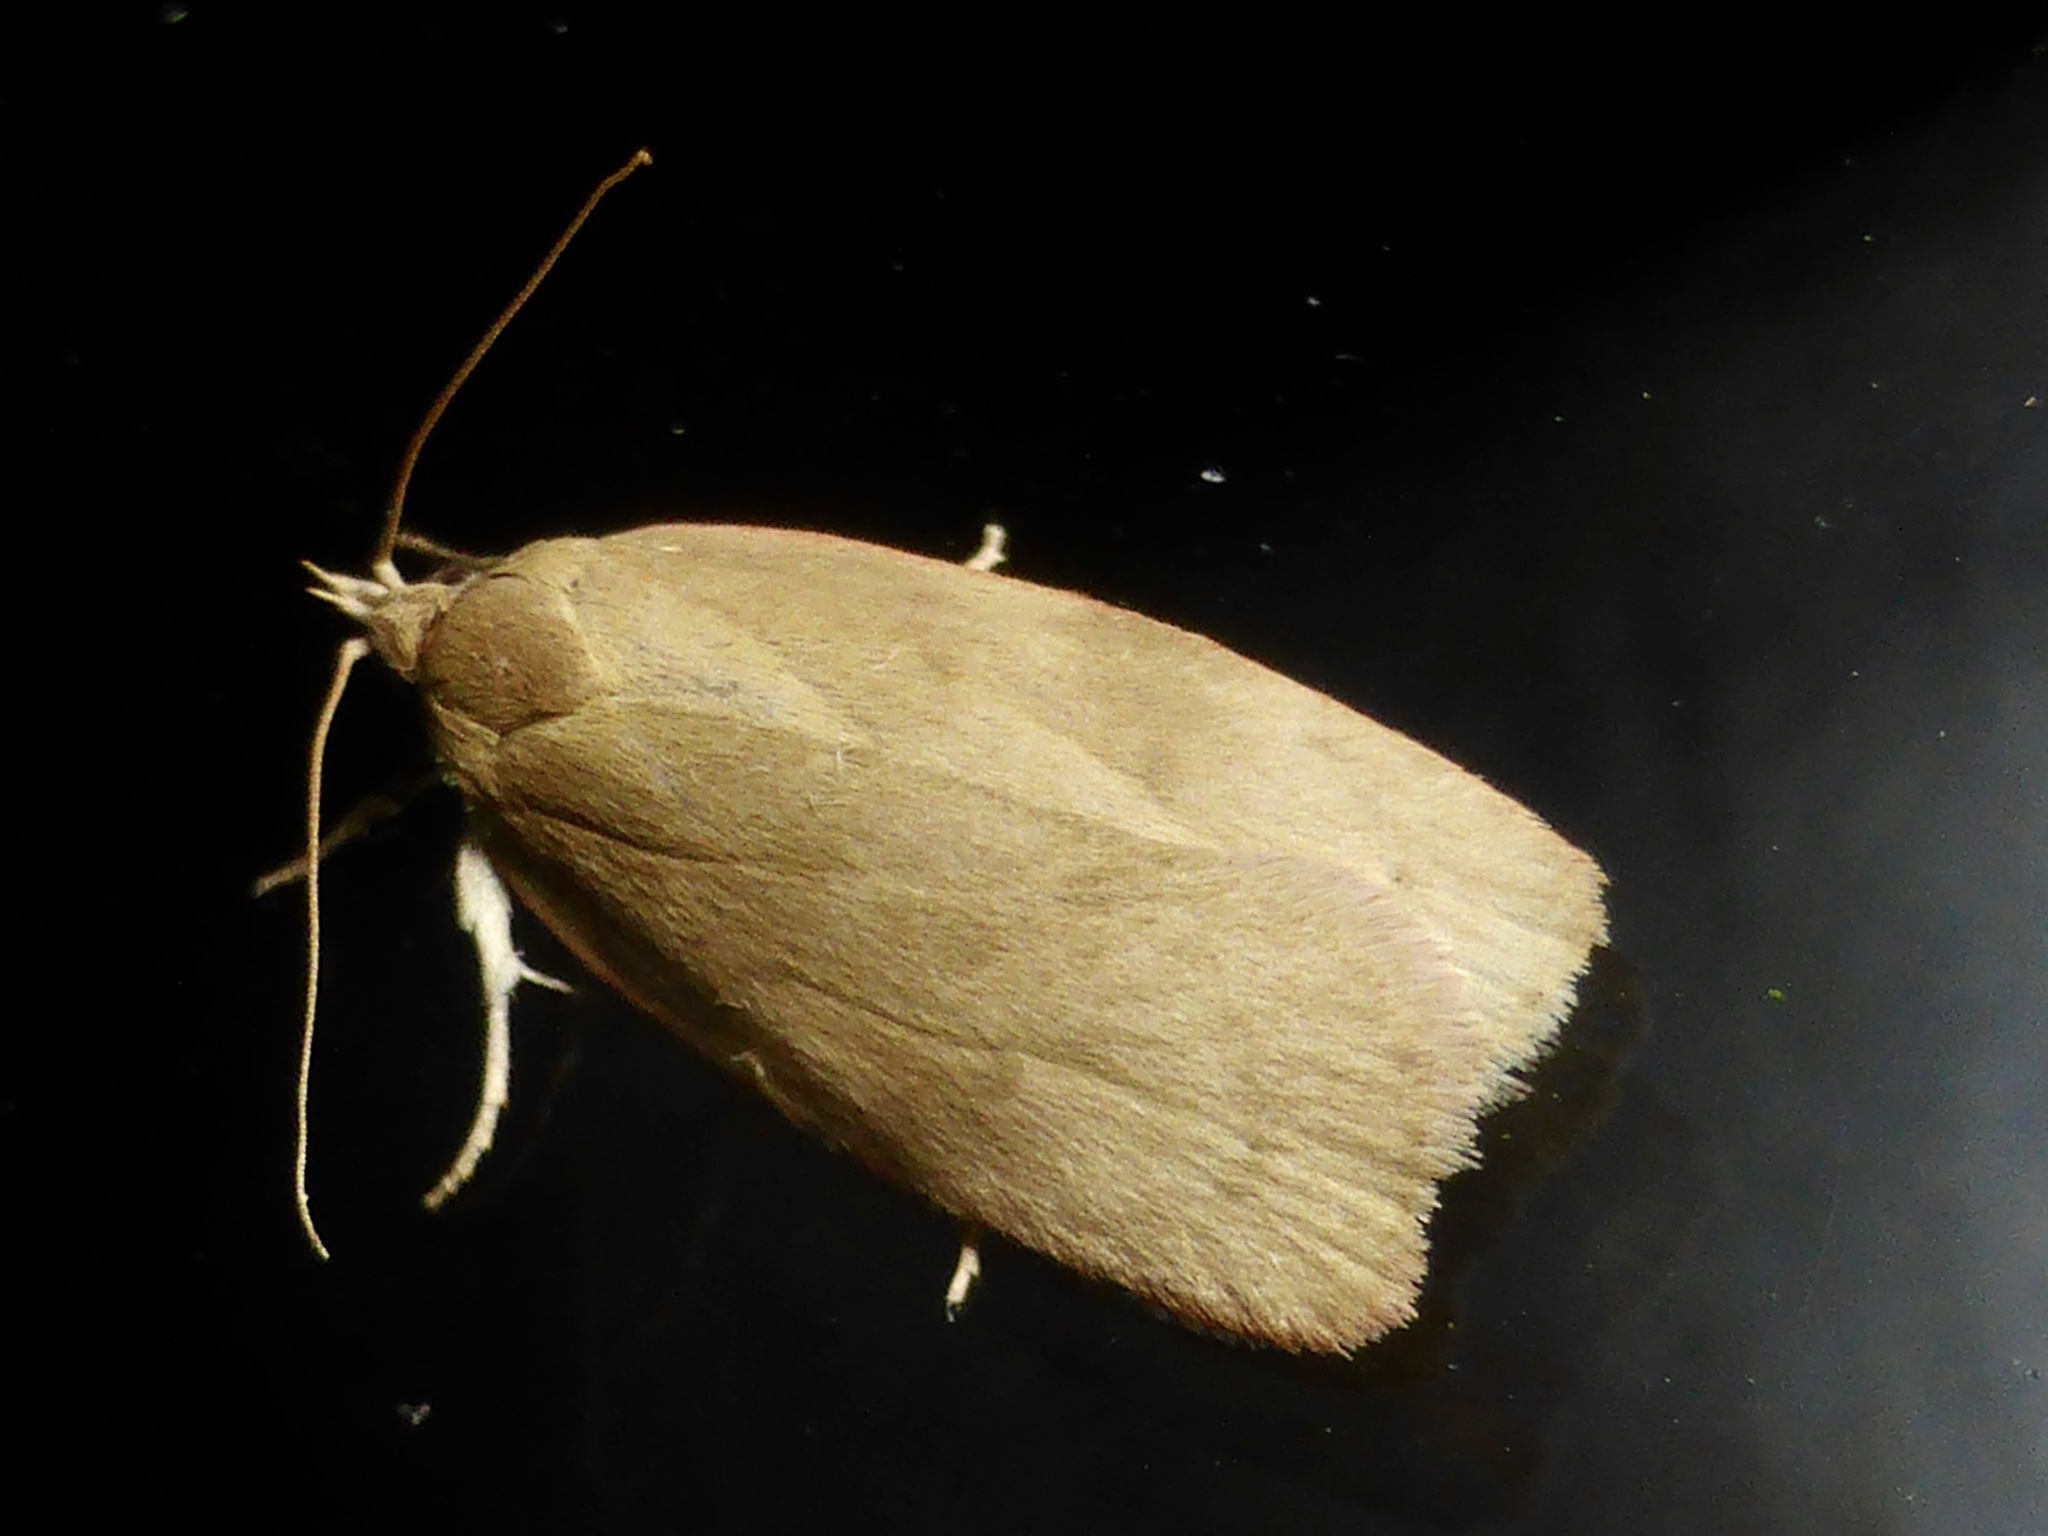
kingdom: Animalia
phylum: Arthropoda
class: Insecta
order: Lepidoptera
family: Depressariidae
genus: Phaeosaces
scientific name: Phaeosaces coarctatella
